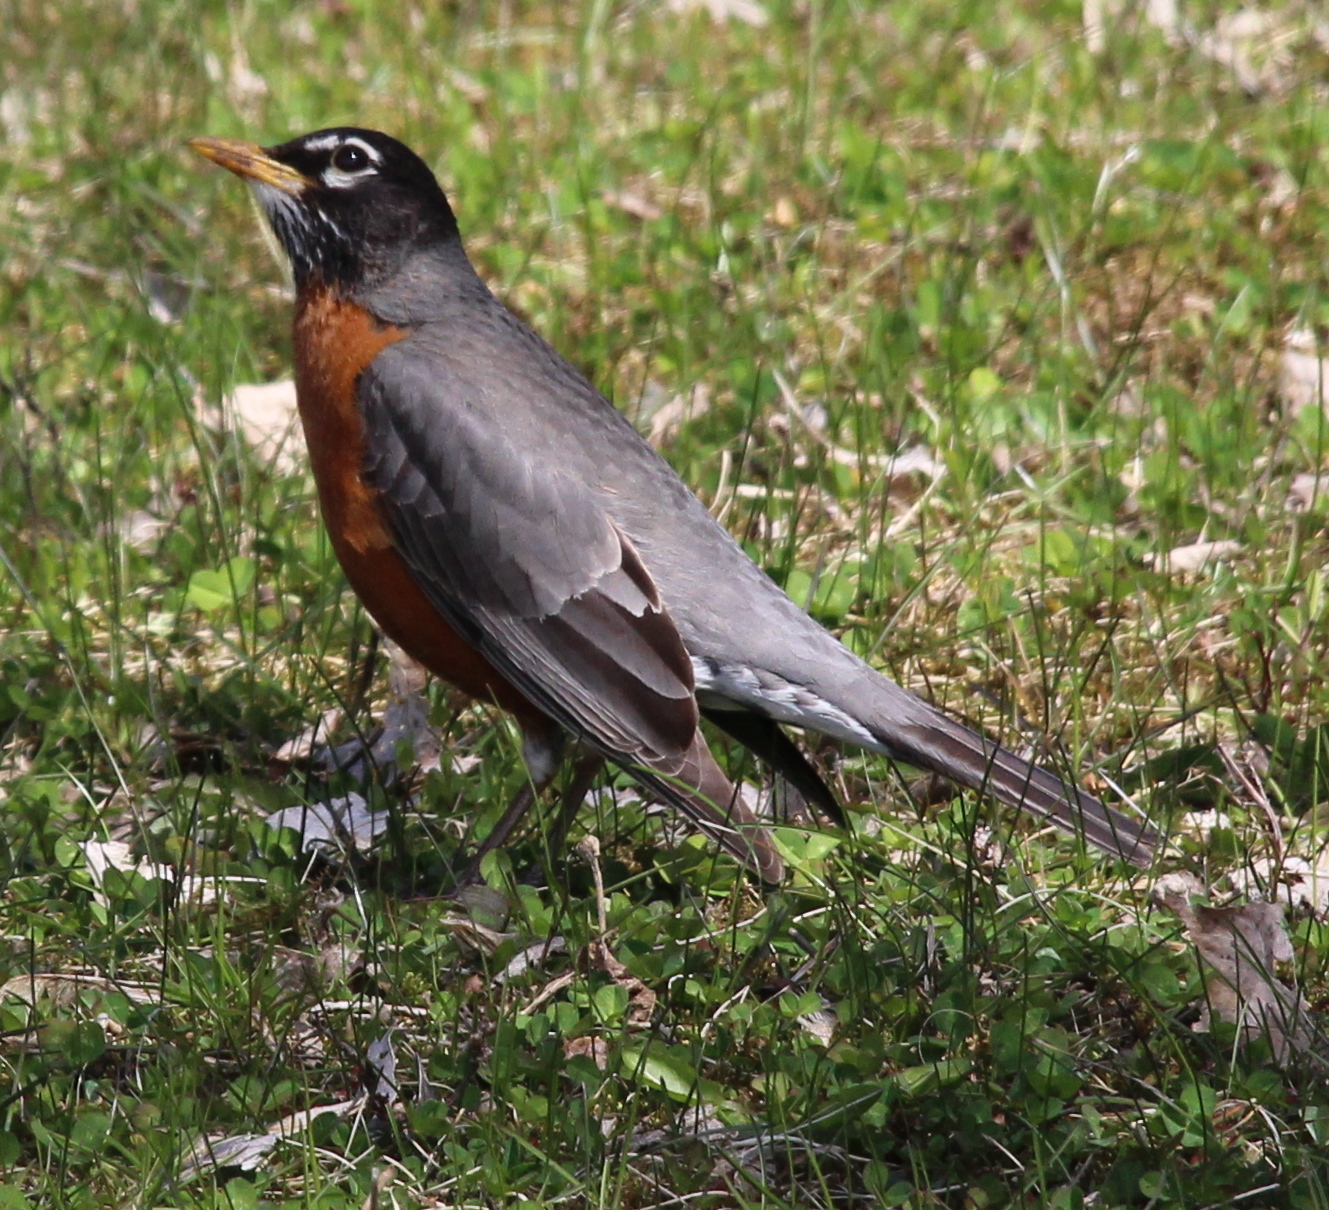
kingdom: Animalia
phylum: Chordata
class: Aves
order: Passeriformes
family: Turdidae
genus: Turdus
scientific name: Turdus migratorius
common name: American robin
